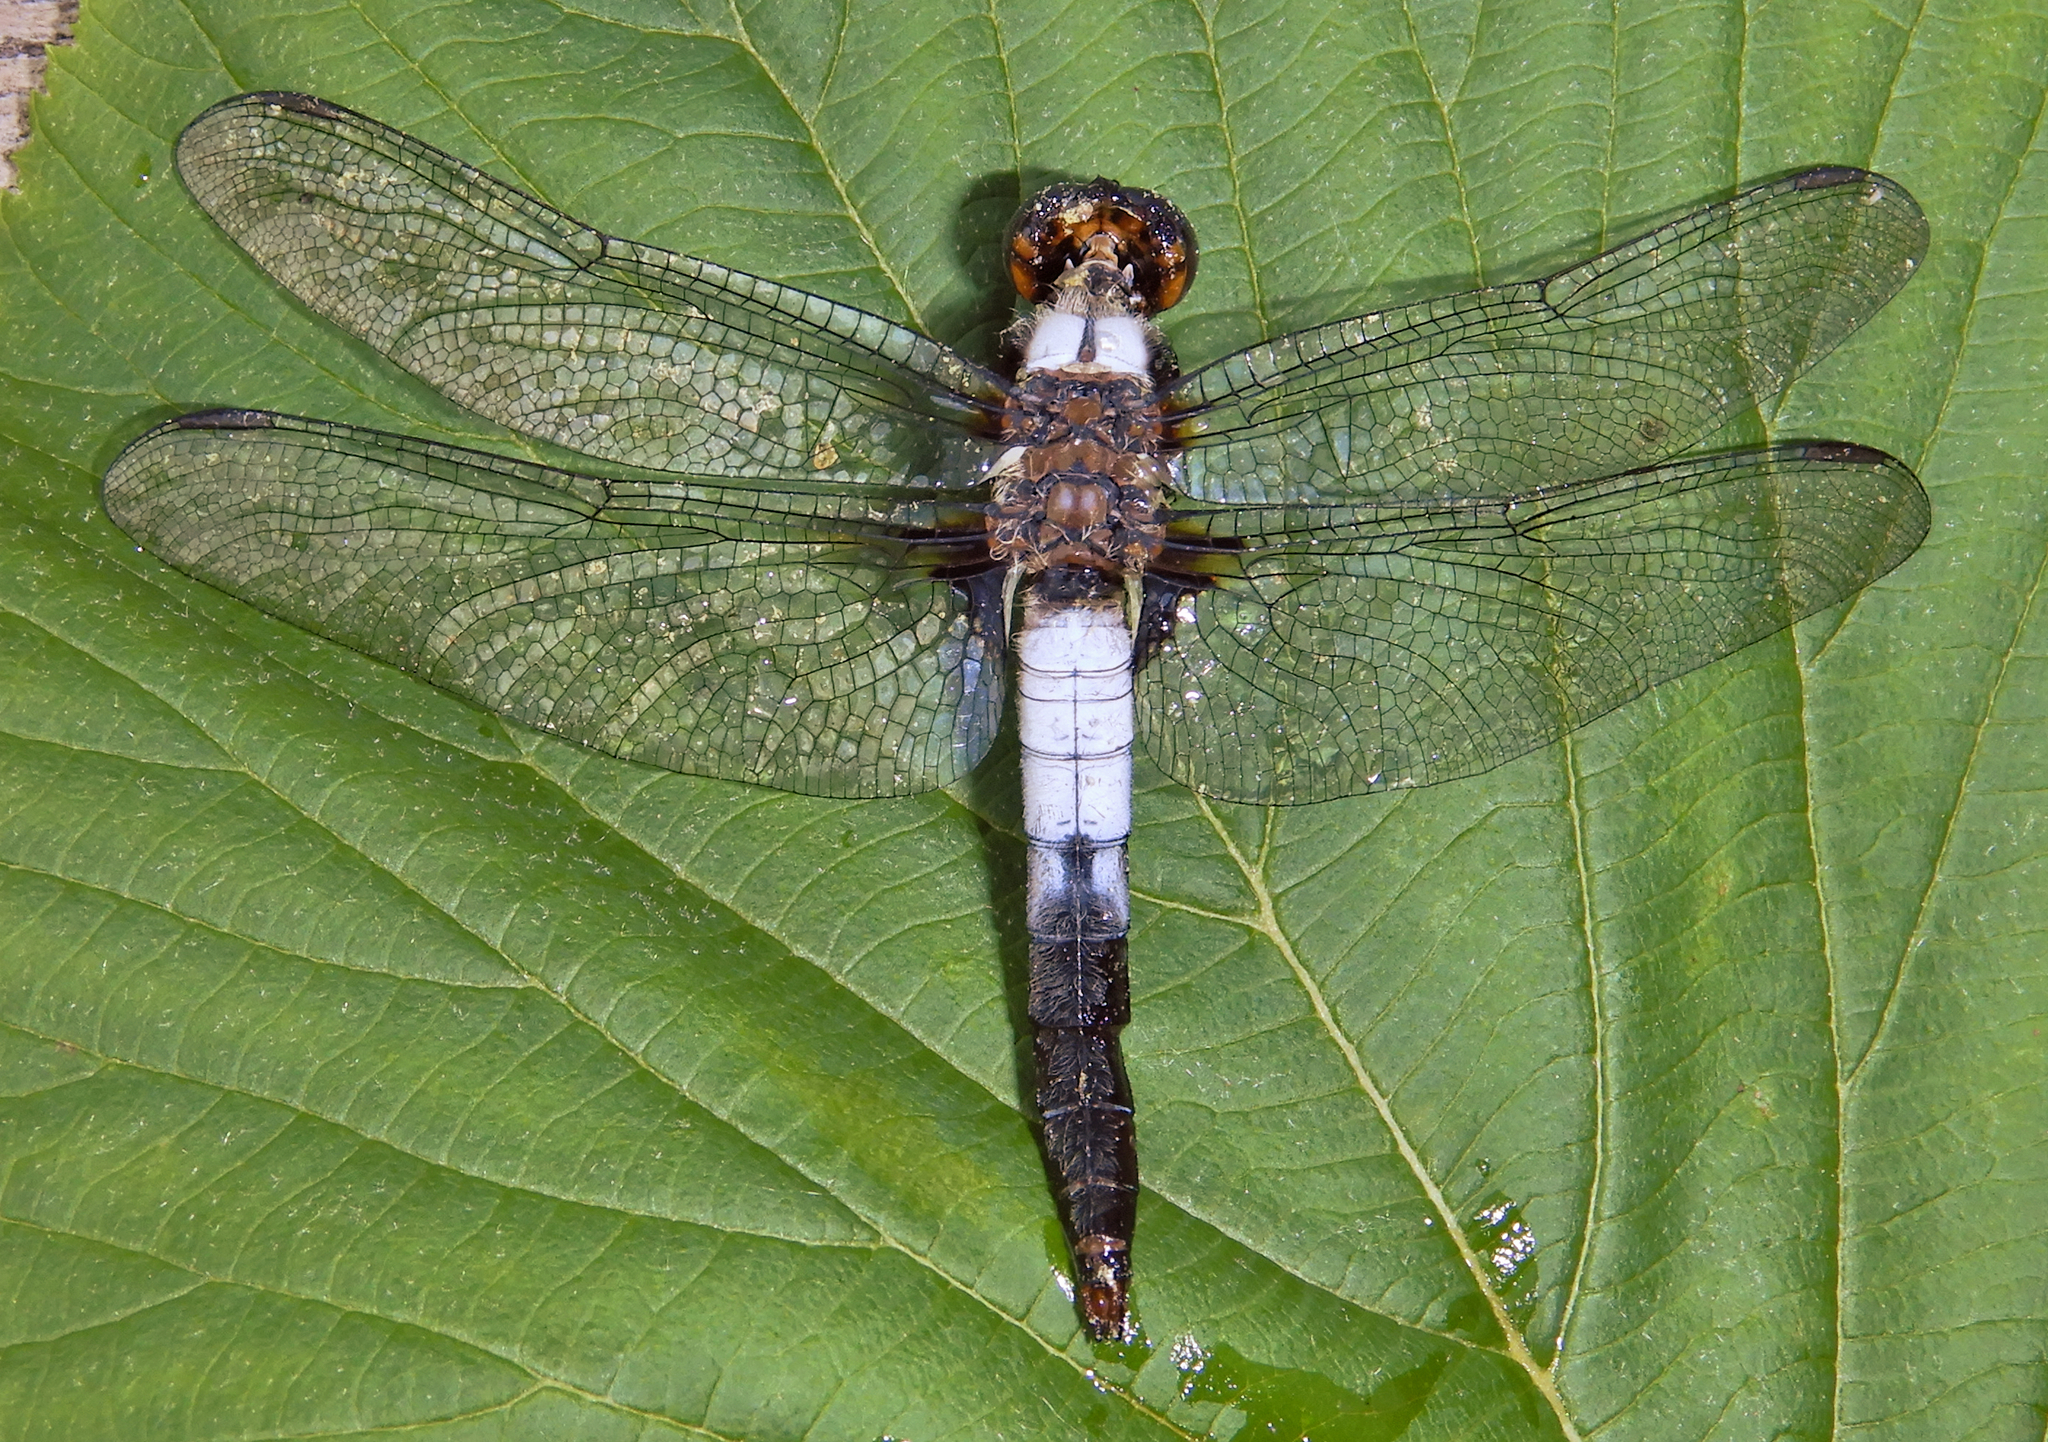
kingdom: Animalia
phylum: Arthropoda
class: Insecta
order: Odonata
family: Libellulidae
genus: Ladona
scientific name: Ladona julia
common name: Chalk-fronted corporal
